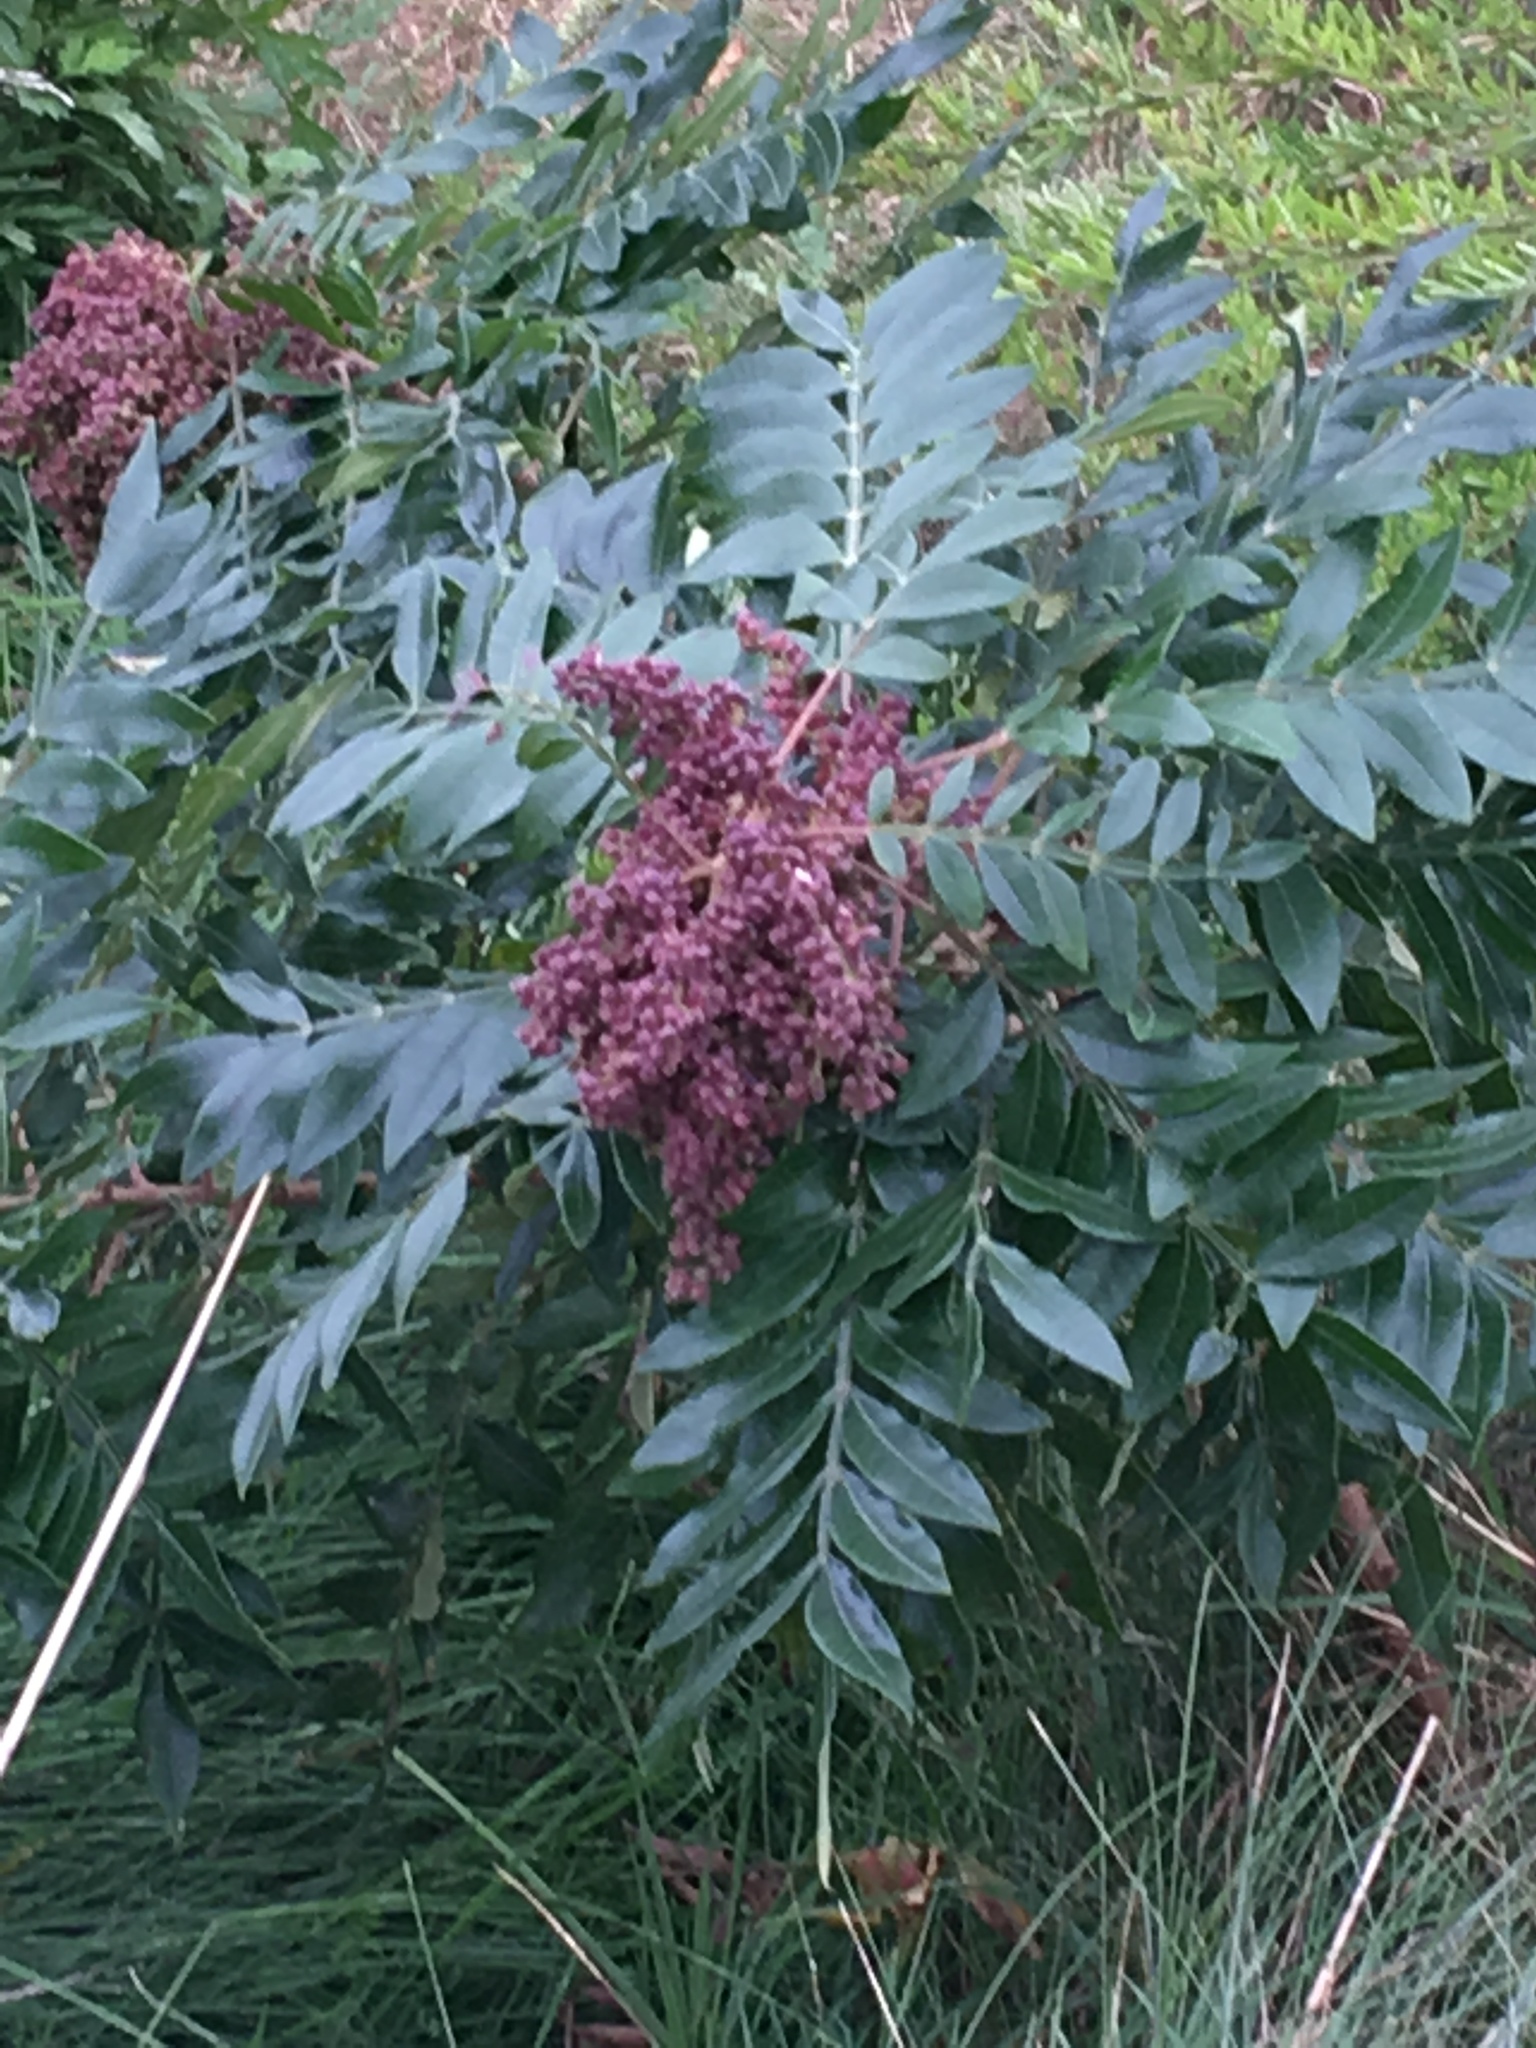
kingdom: Plantae
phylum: Tracheophyta
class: Magnoliopsida
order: Sapindales
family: Anacardiaceae
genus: Rhus
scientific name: Rhus copallina
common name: Shining sumac
